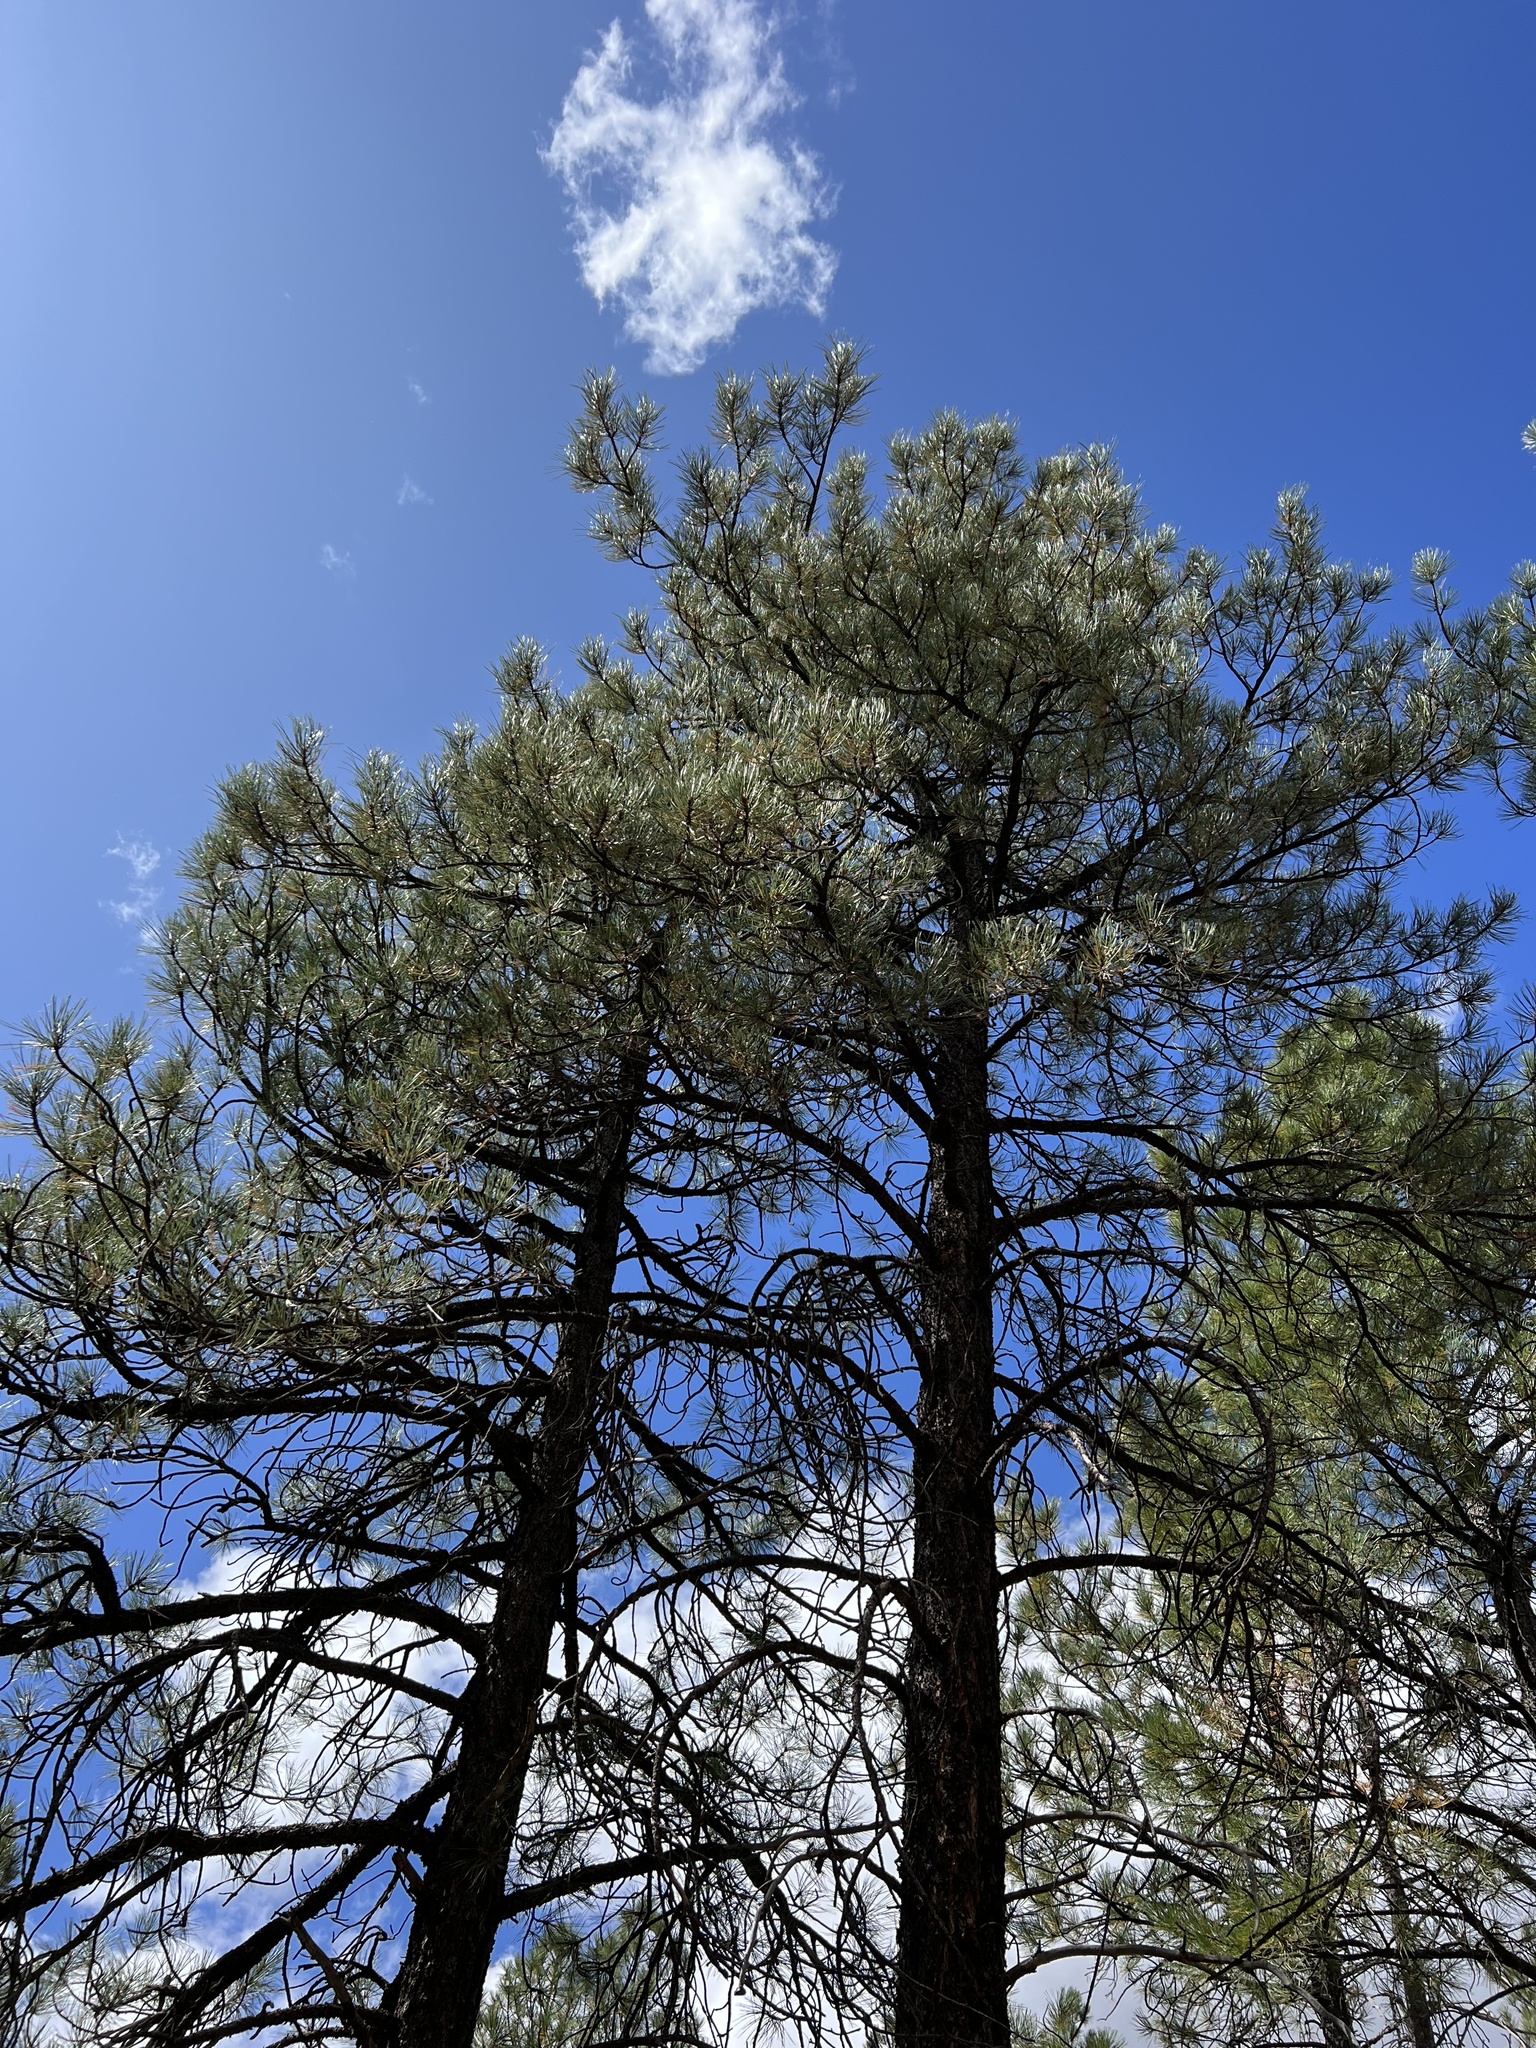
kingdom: Plantae
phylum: Tracheophyta
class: Pinopsida
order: Pinales
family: Pinaceae
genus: Pinus
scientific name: Pinus ponderosa
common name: Western yellow-pine
